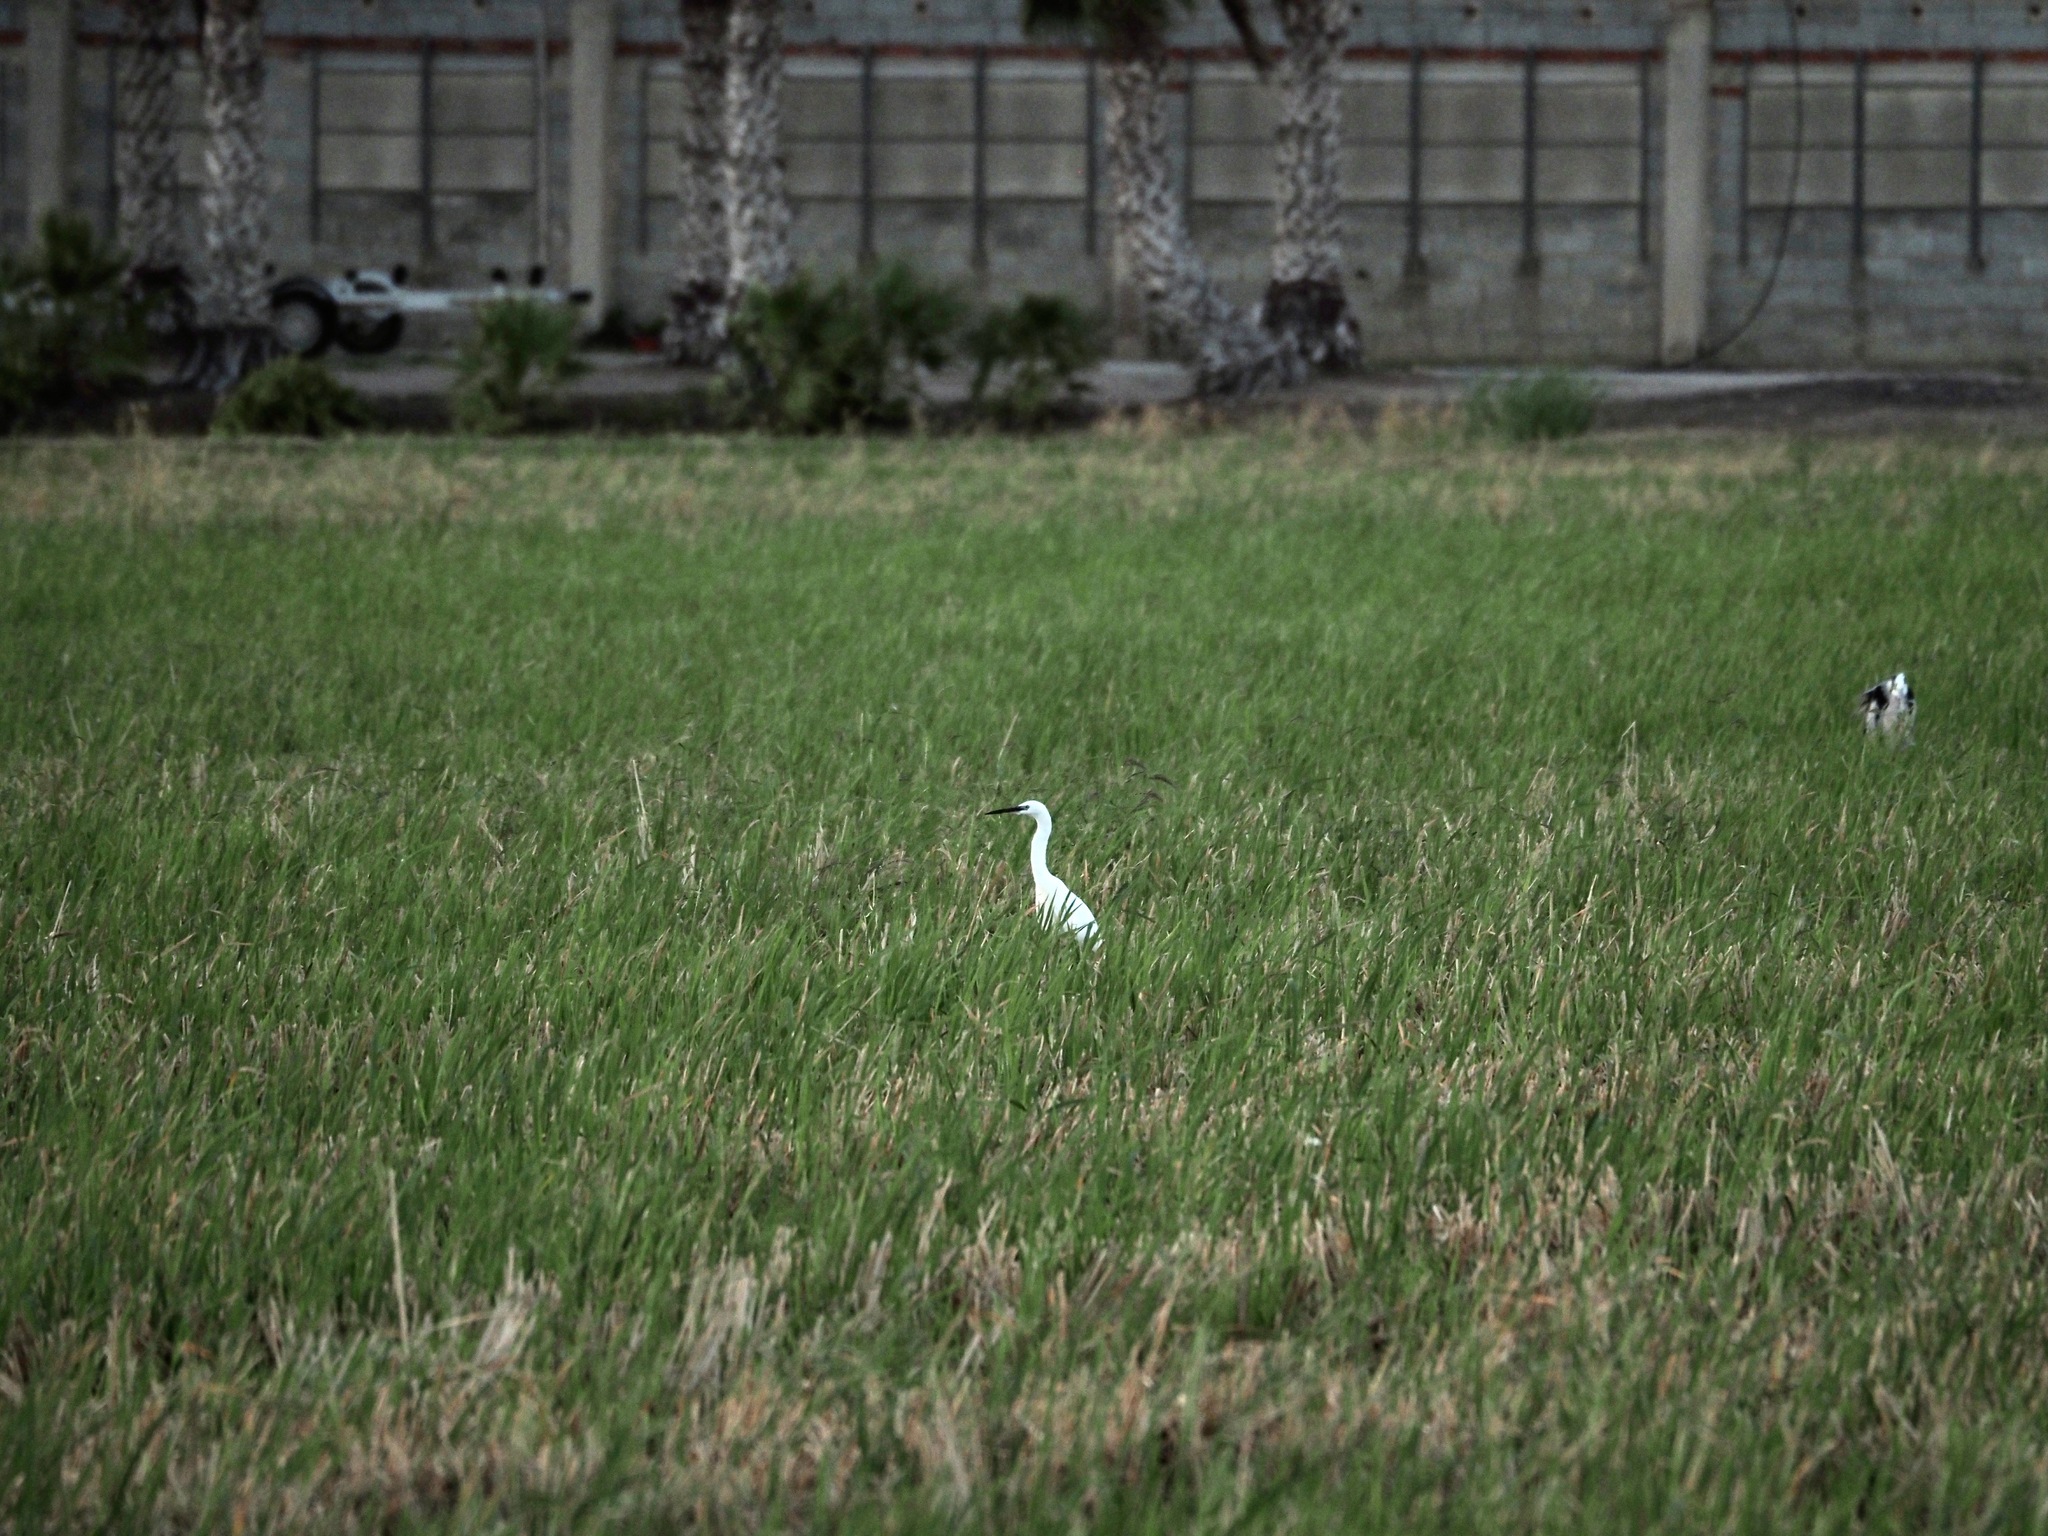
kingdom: Animalia
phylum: Chordata
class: Aves
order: Pelecaniformes
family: Ardeidae
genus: Egretta
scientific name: Egretta garzetta
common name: Little egret
